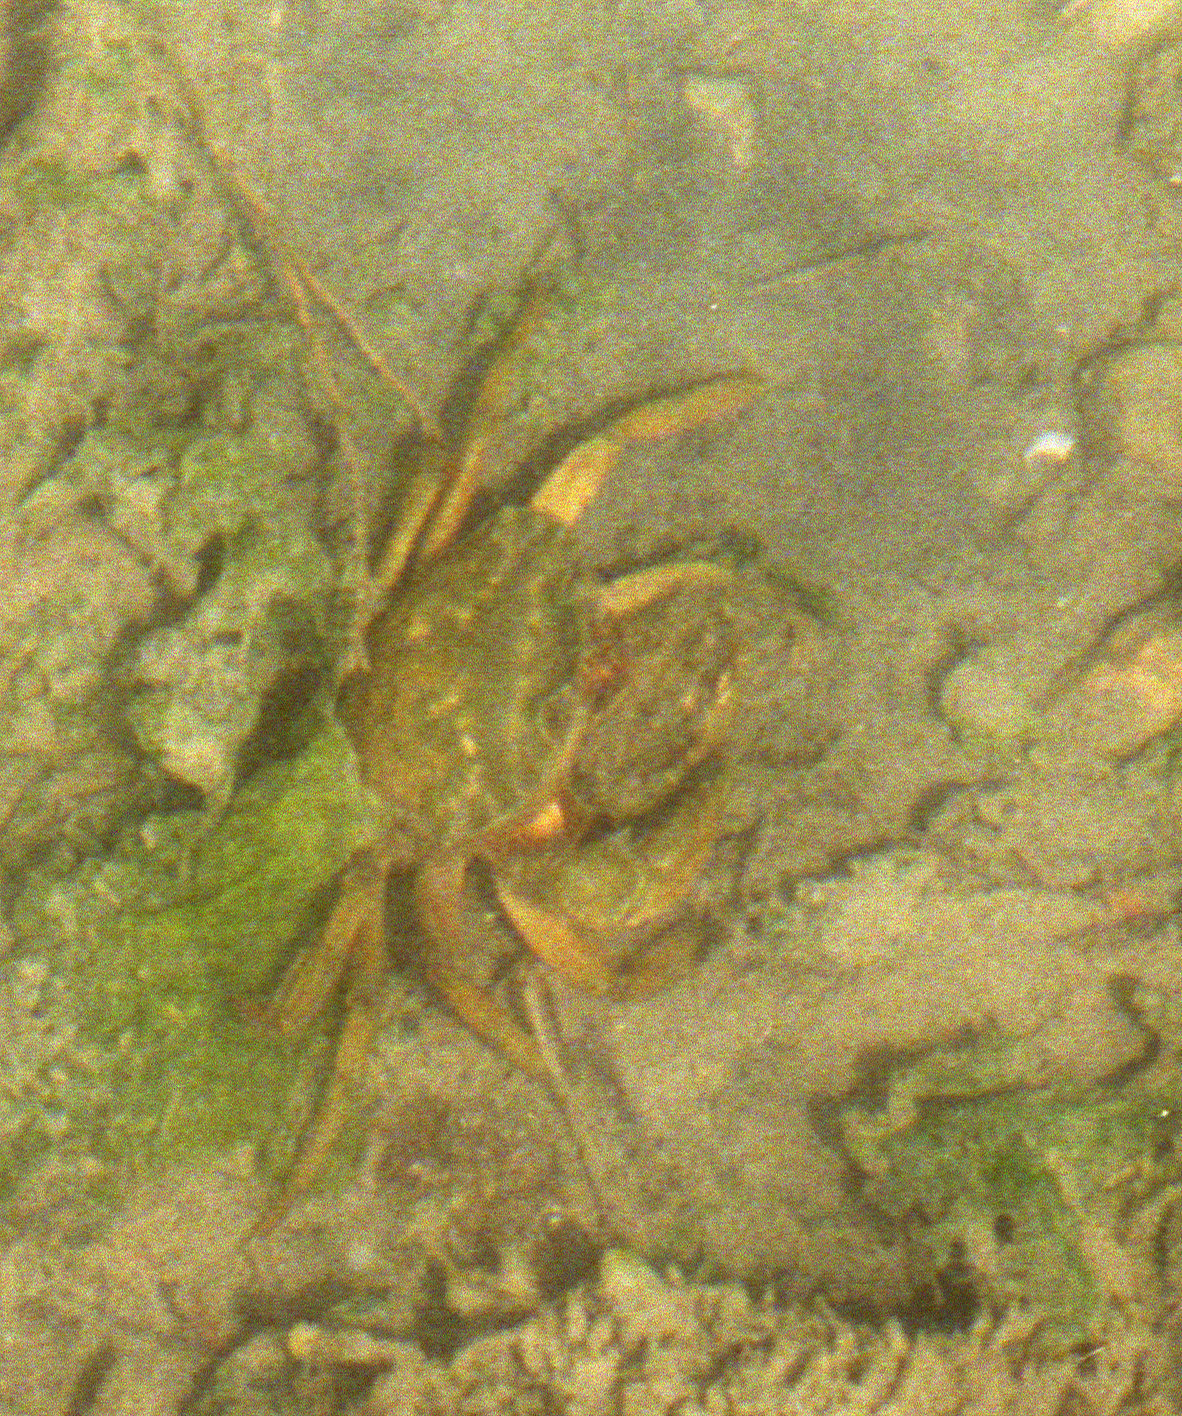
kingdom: Animalia
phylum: Arthropoda
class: Malacostraca
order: Decapoda
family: Carcinidae
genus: Carcinus
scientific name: Carcinus aestuarii
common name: Mediterranean green crab
